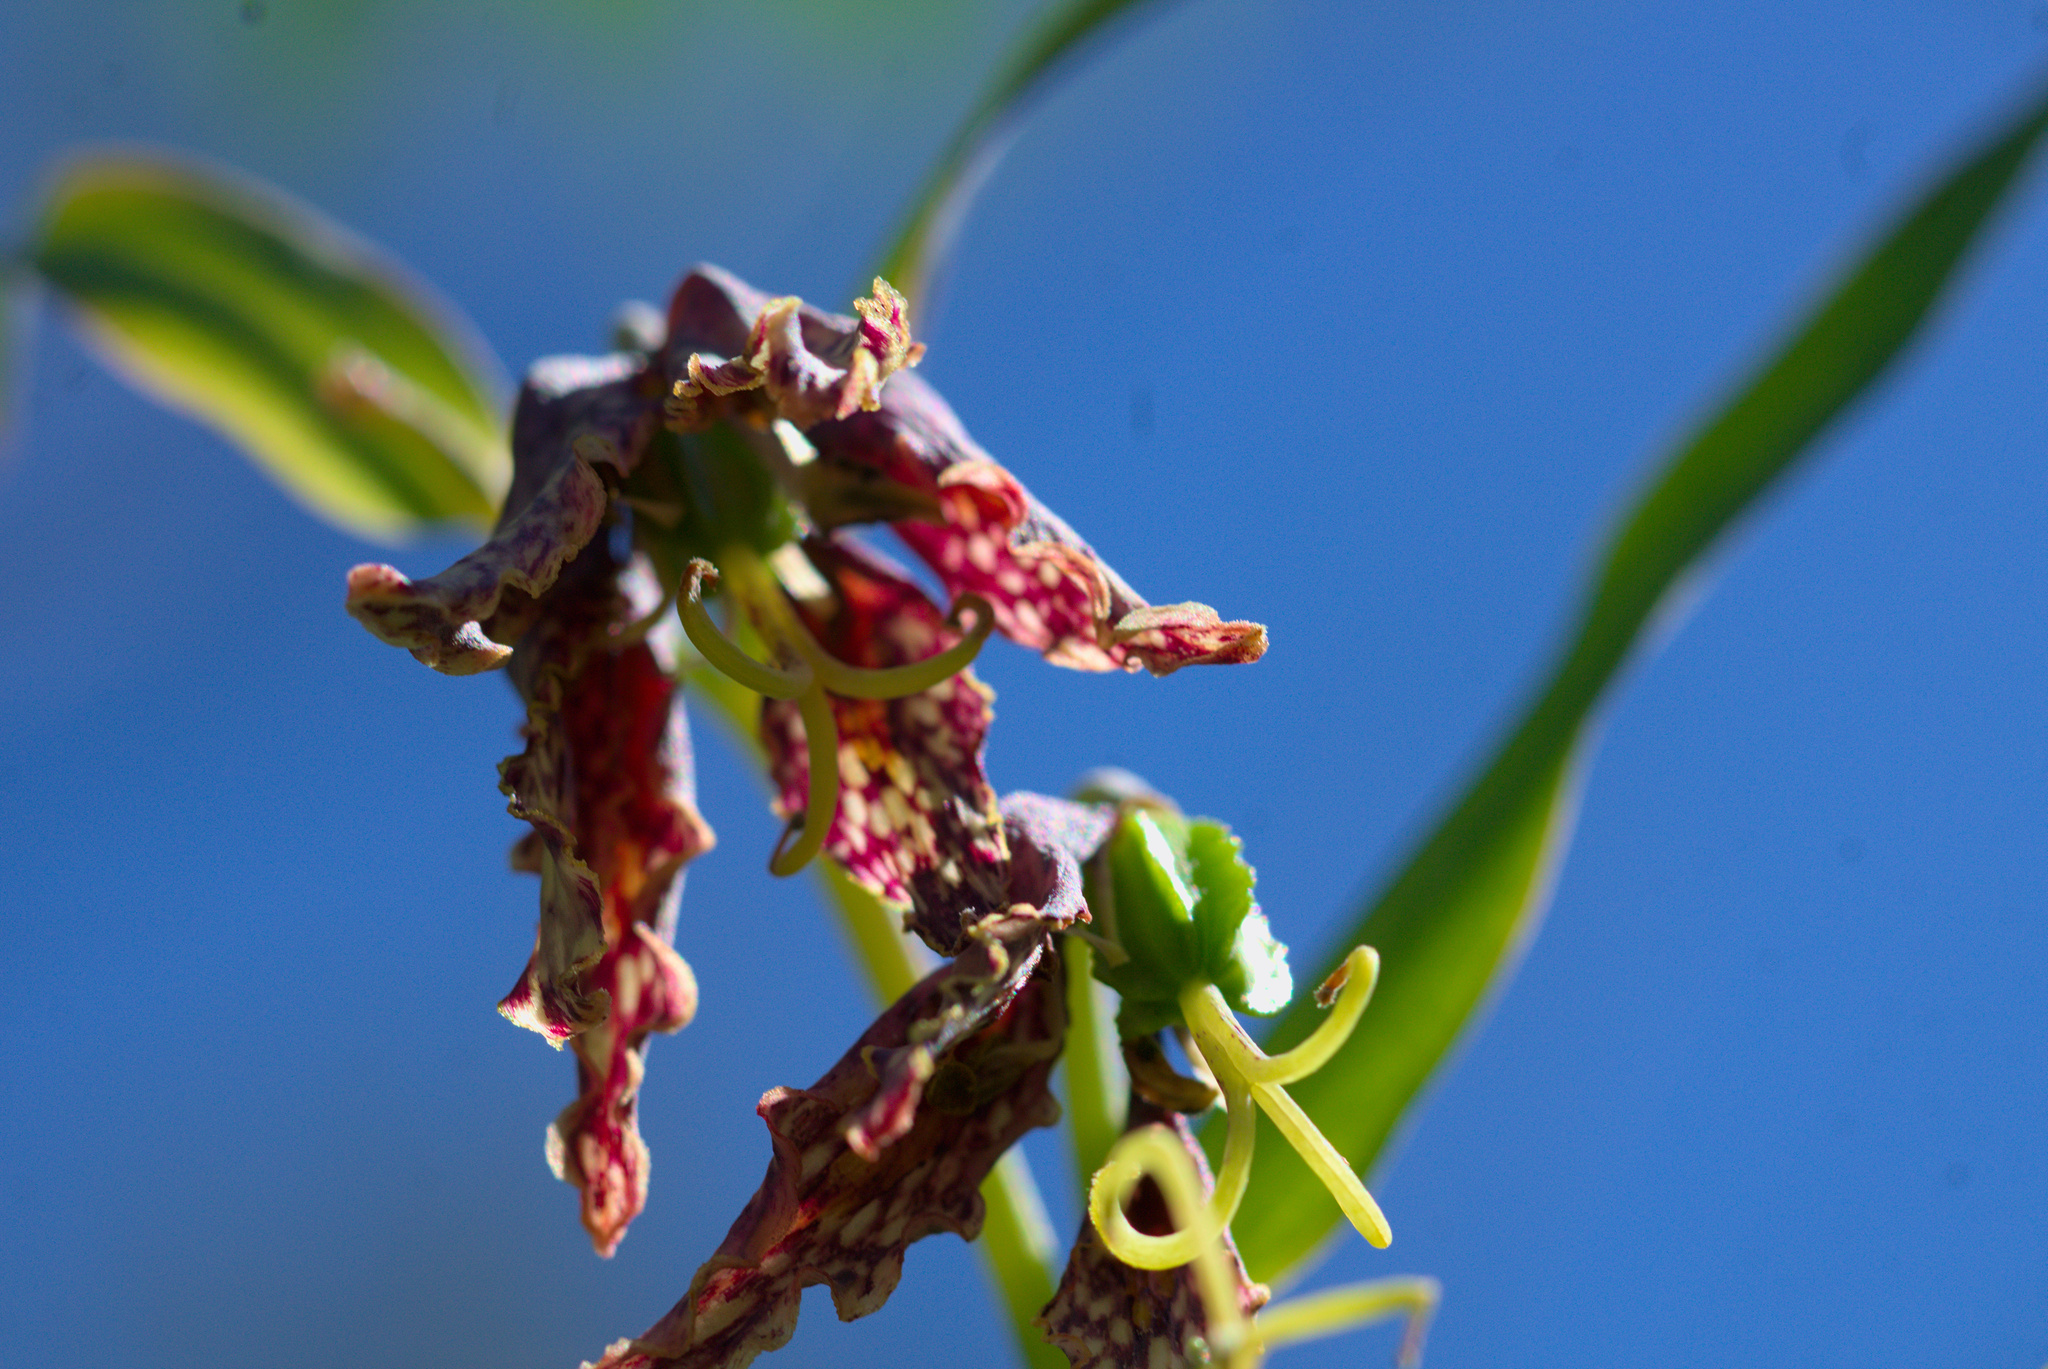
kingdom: Plantae
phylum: Tracheophyta
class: Liliopsida
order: Liliales
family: Liliaceae
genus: Fritillaria
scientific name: Fritillaria affinis
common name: Ojai fritillary
